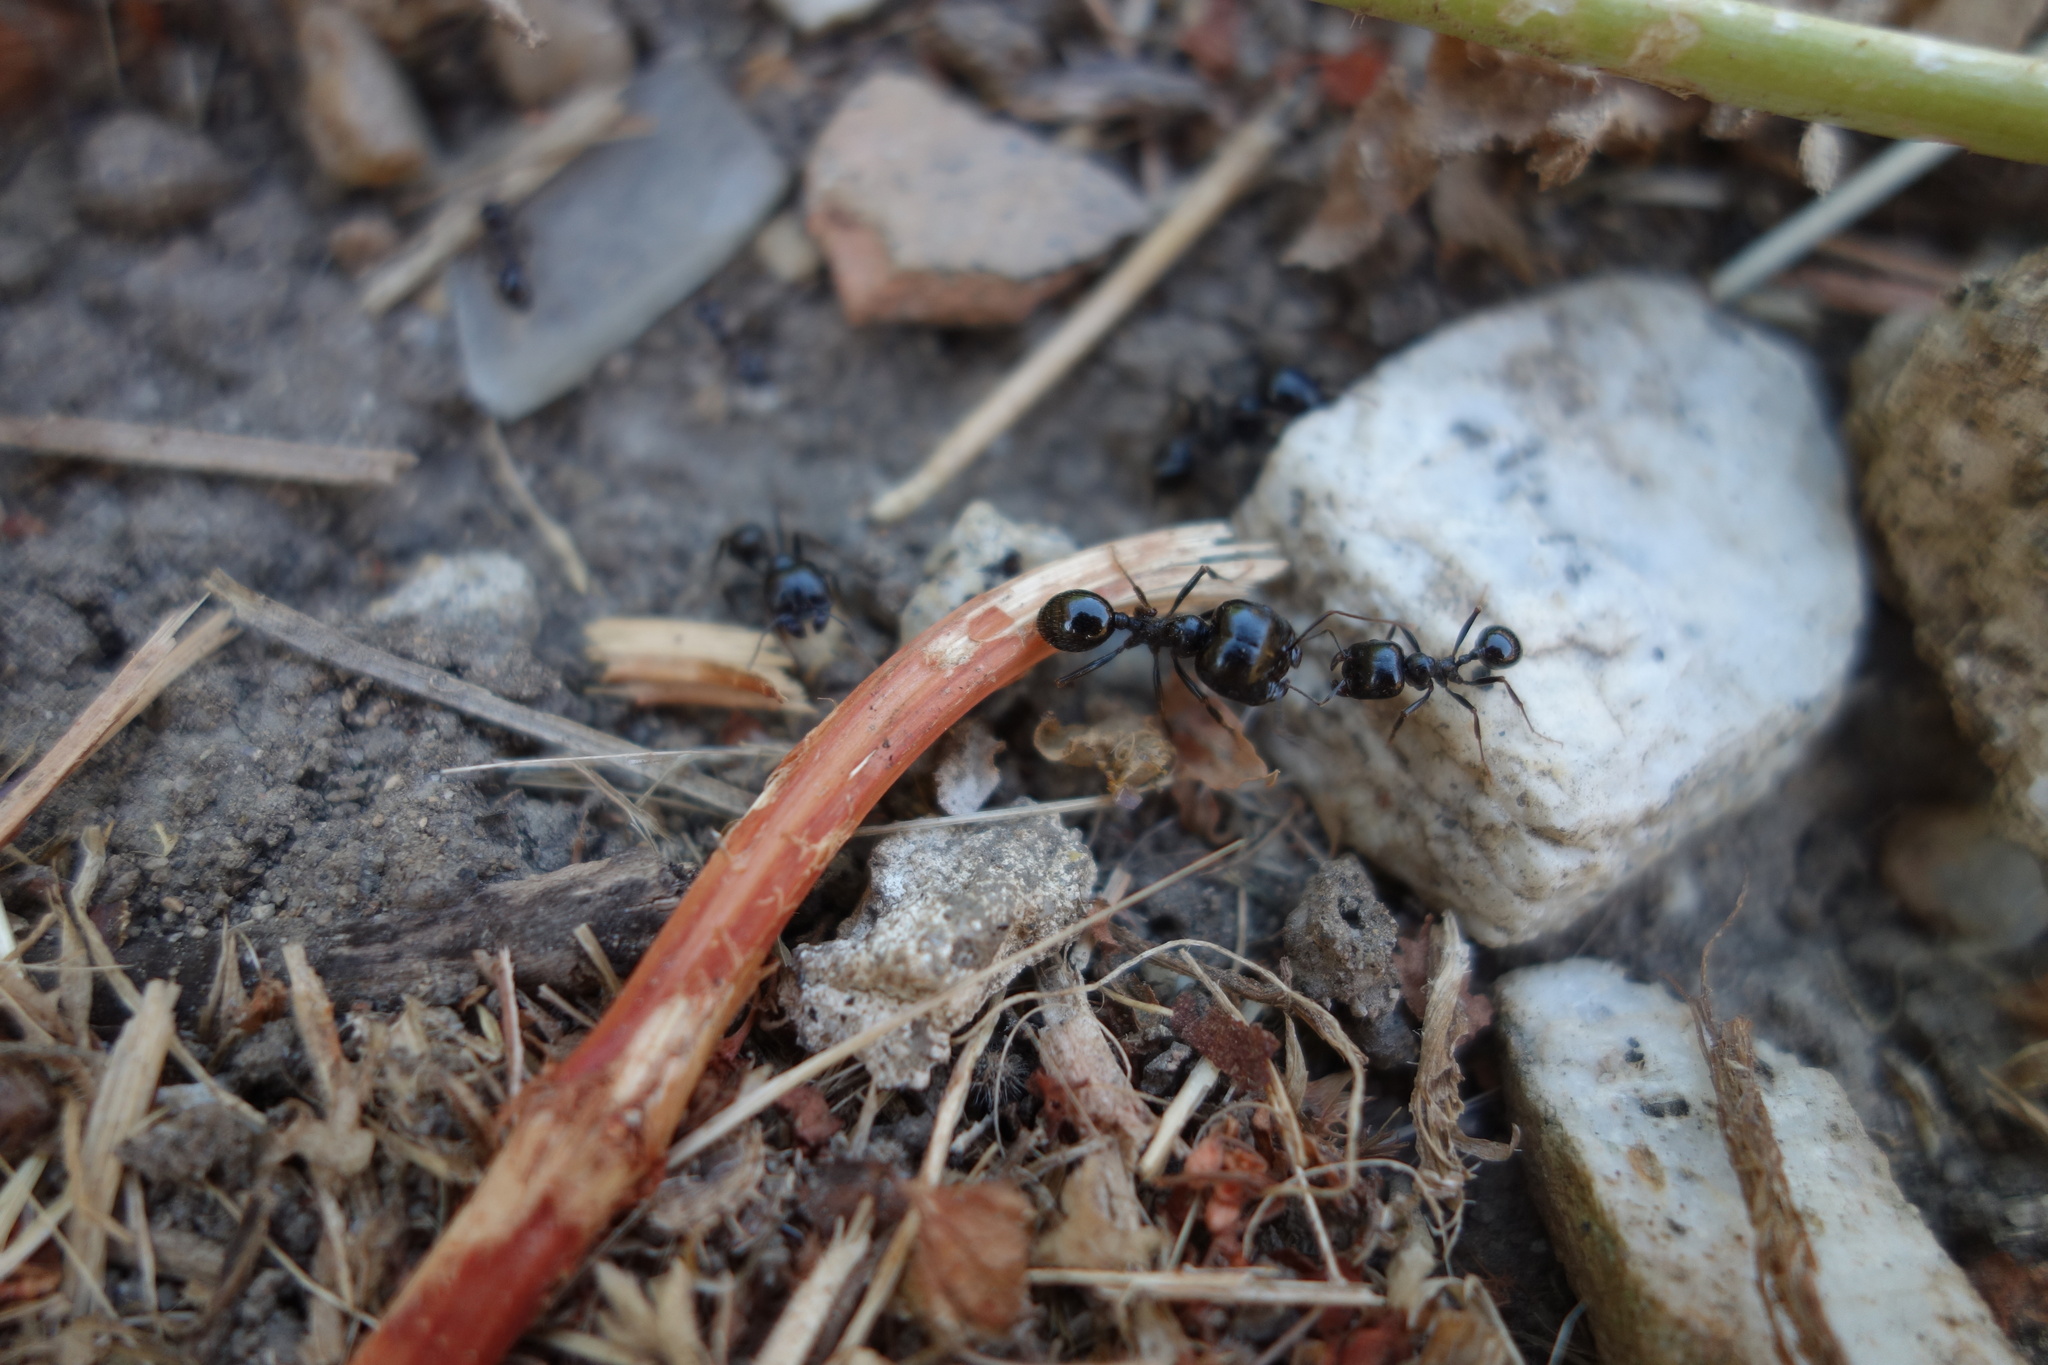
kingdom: Animalia
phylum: Arthropoda
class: Insecta
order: Hymenoptera
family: Formicidae
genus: Messor
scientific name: Messor capitatus
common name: European seed harvesting ant
